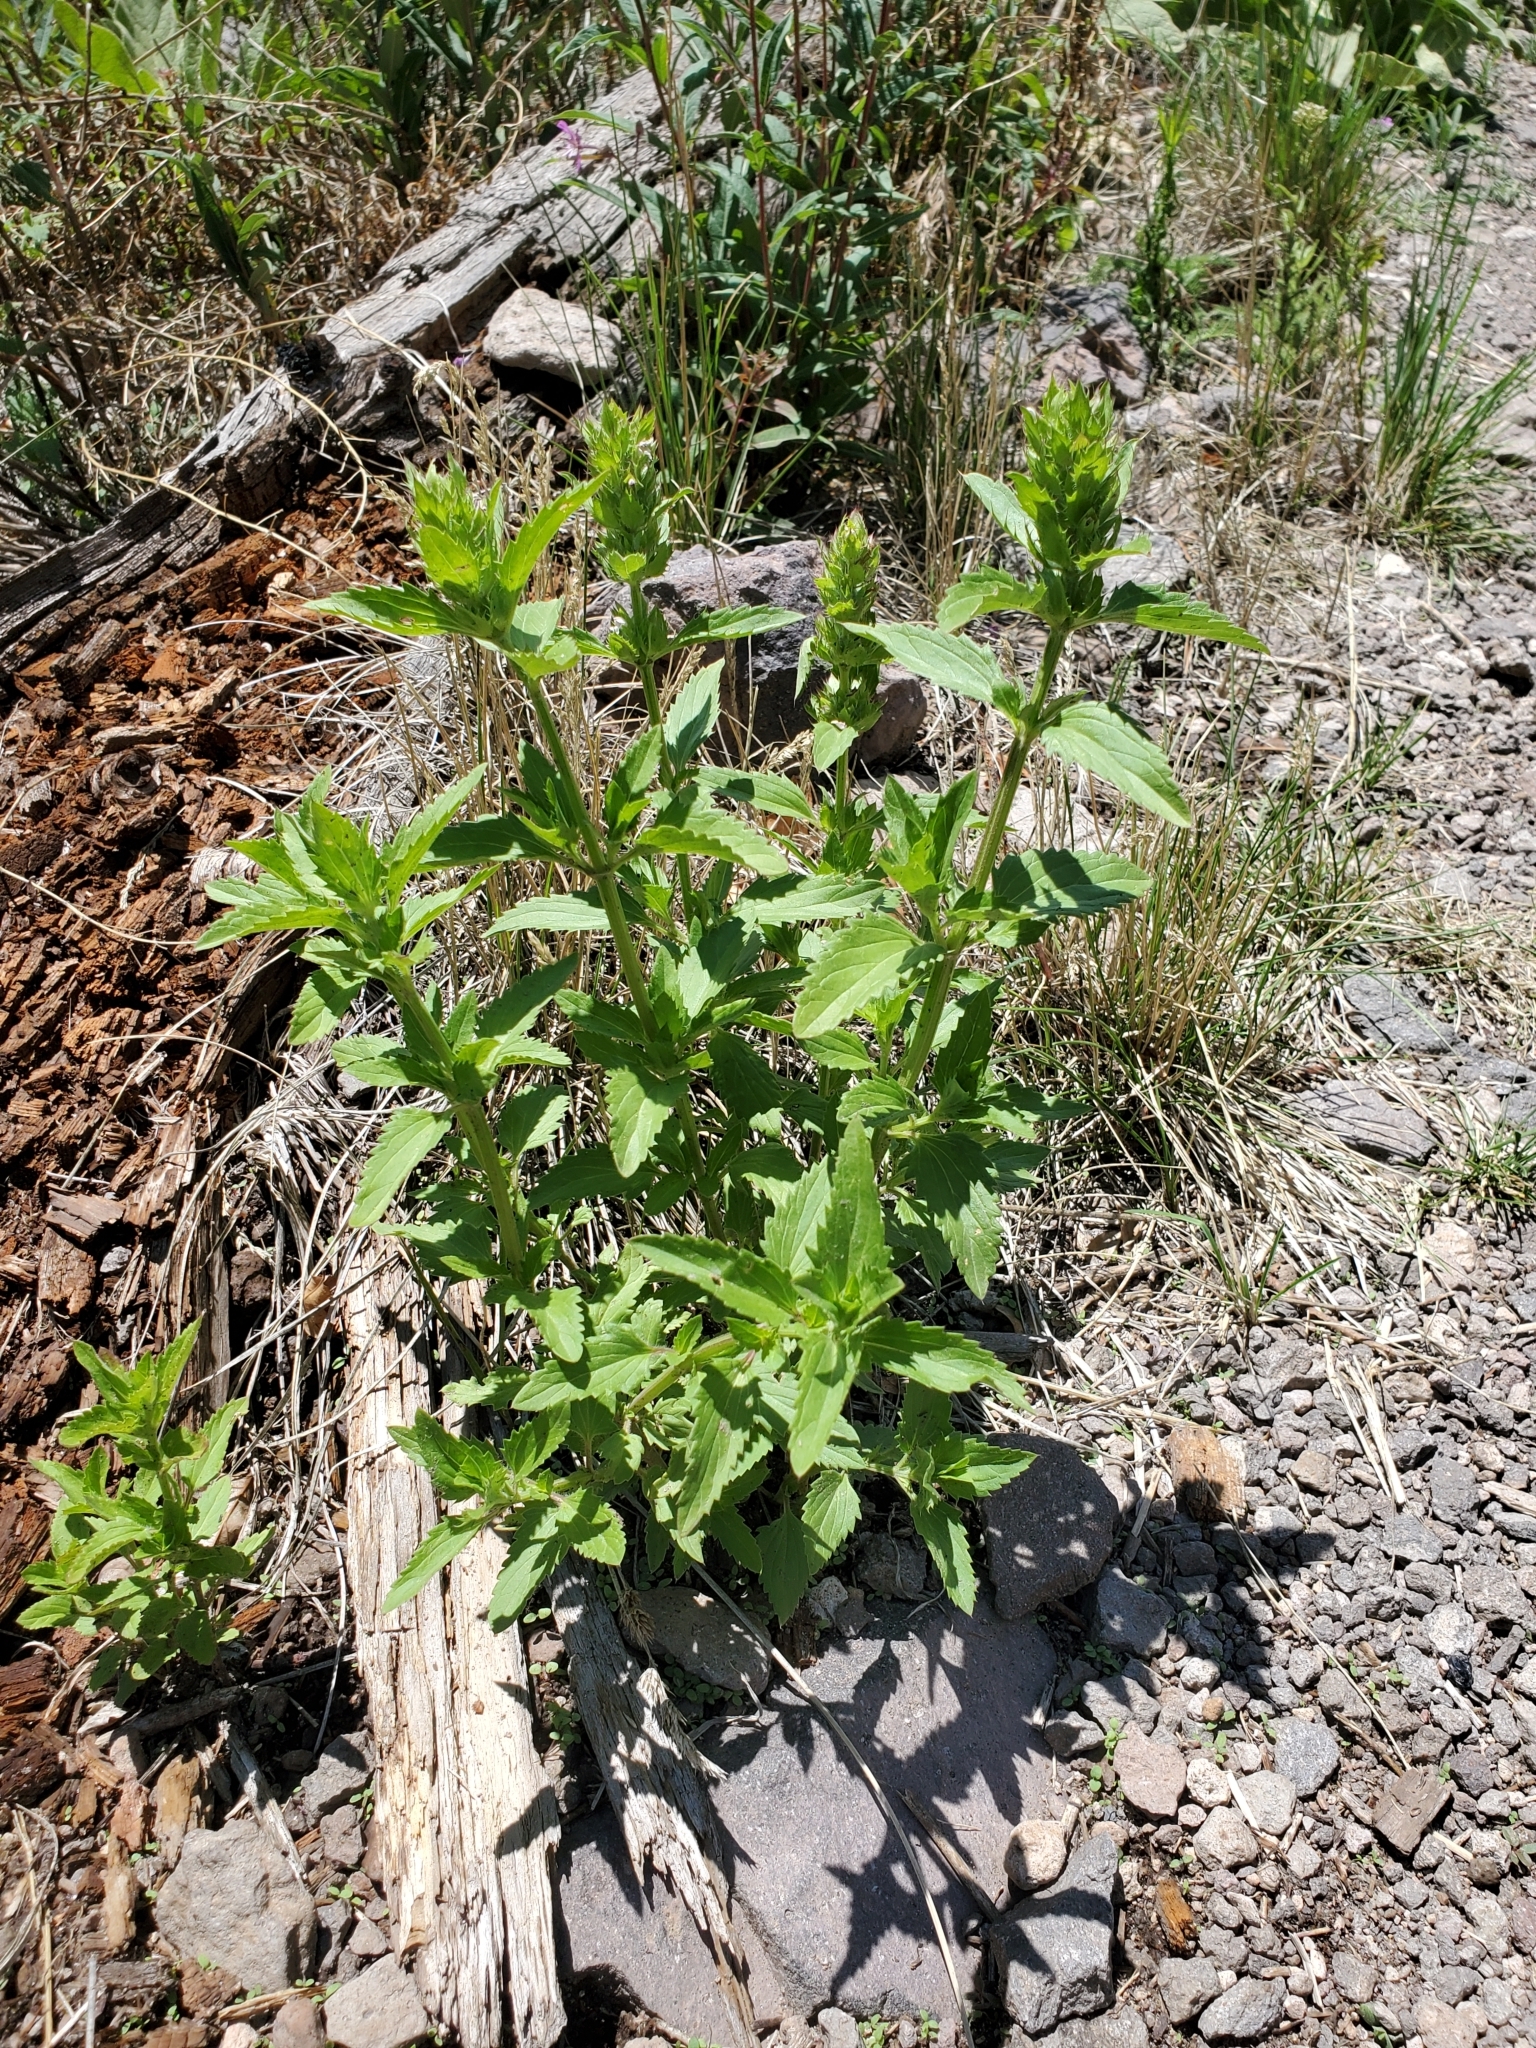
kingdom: Plantae
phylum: Tracheophyta
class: Magnoliopsida
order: Lamiales
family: Lamiaceae
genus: Dracocephalum
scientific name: Dracocephalum parviflorum
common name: American dragonhead
